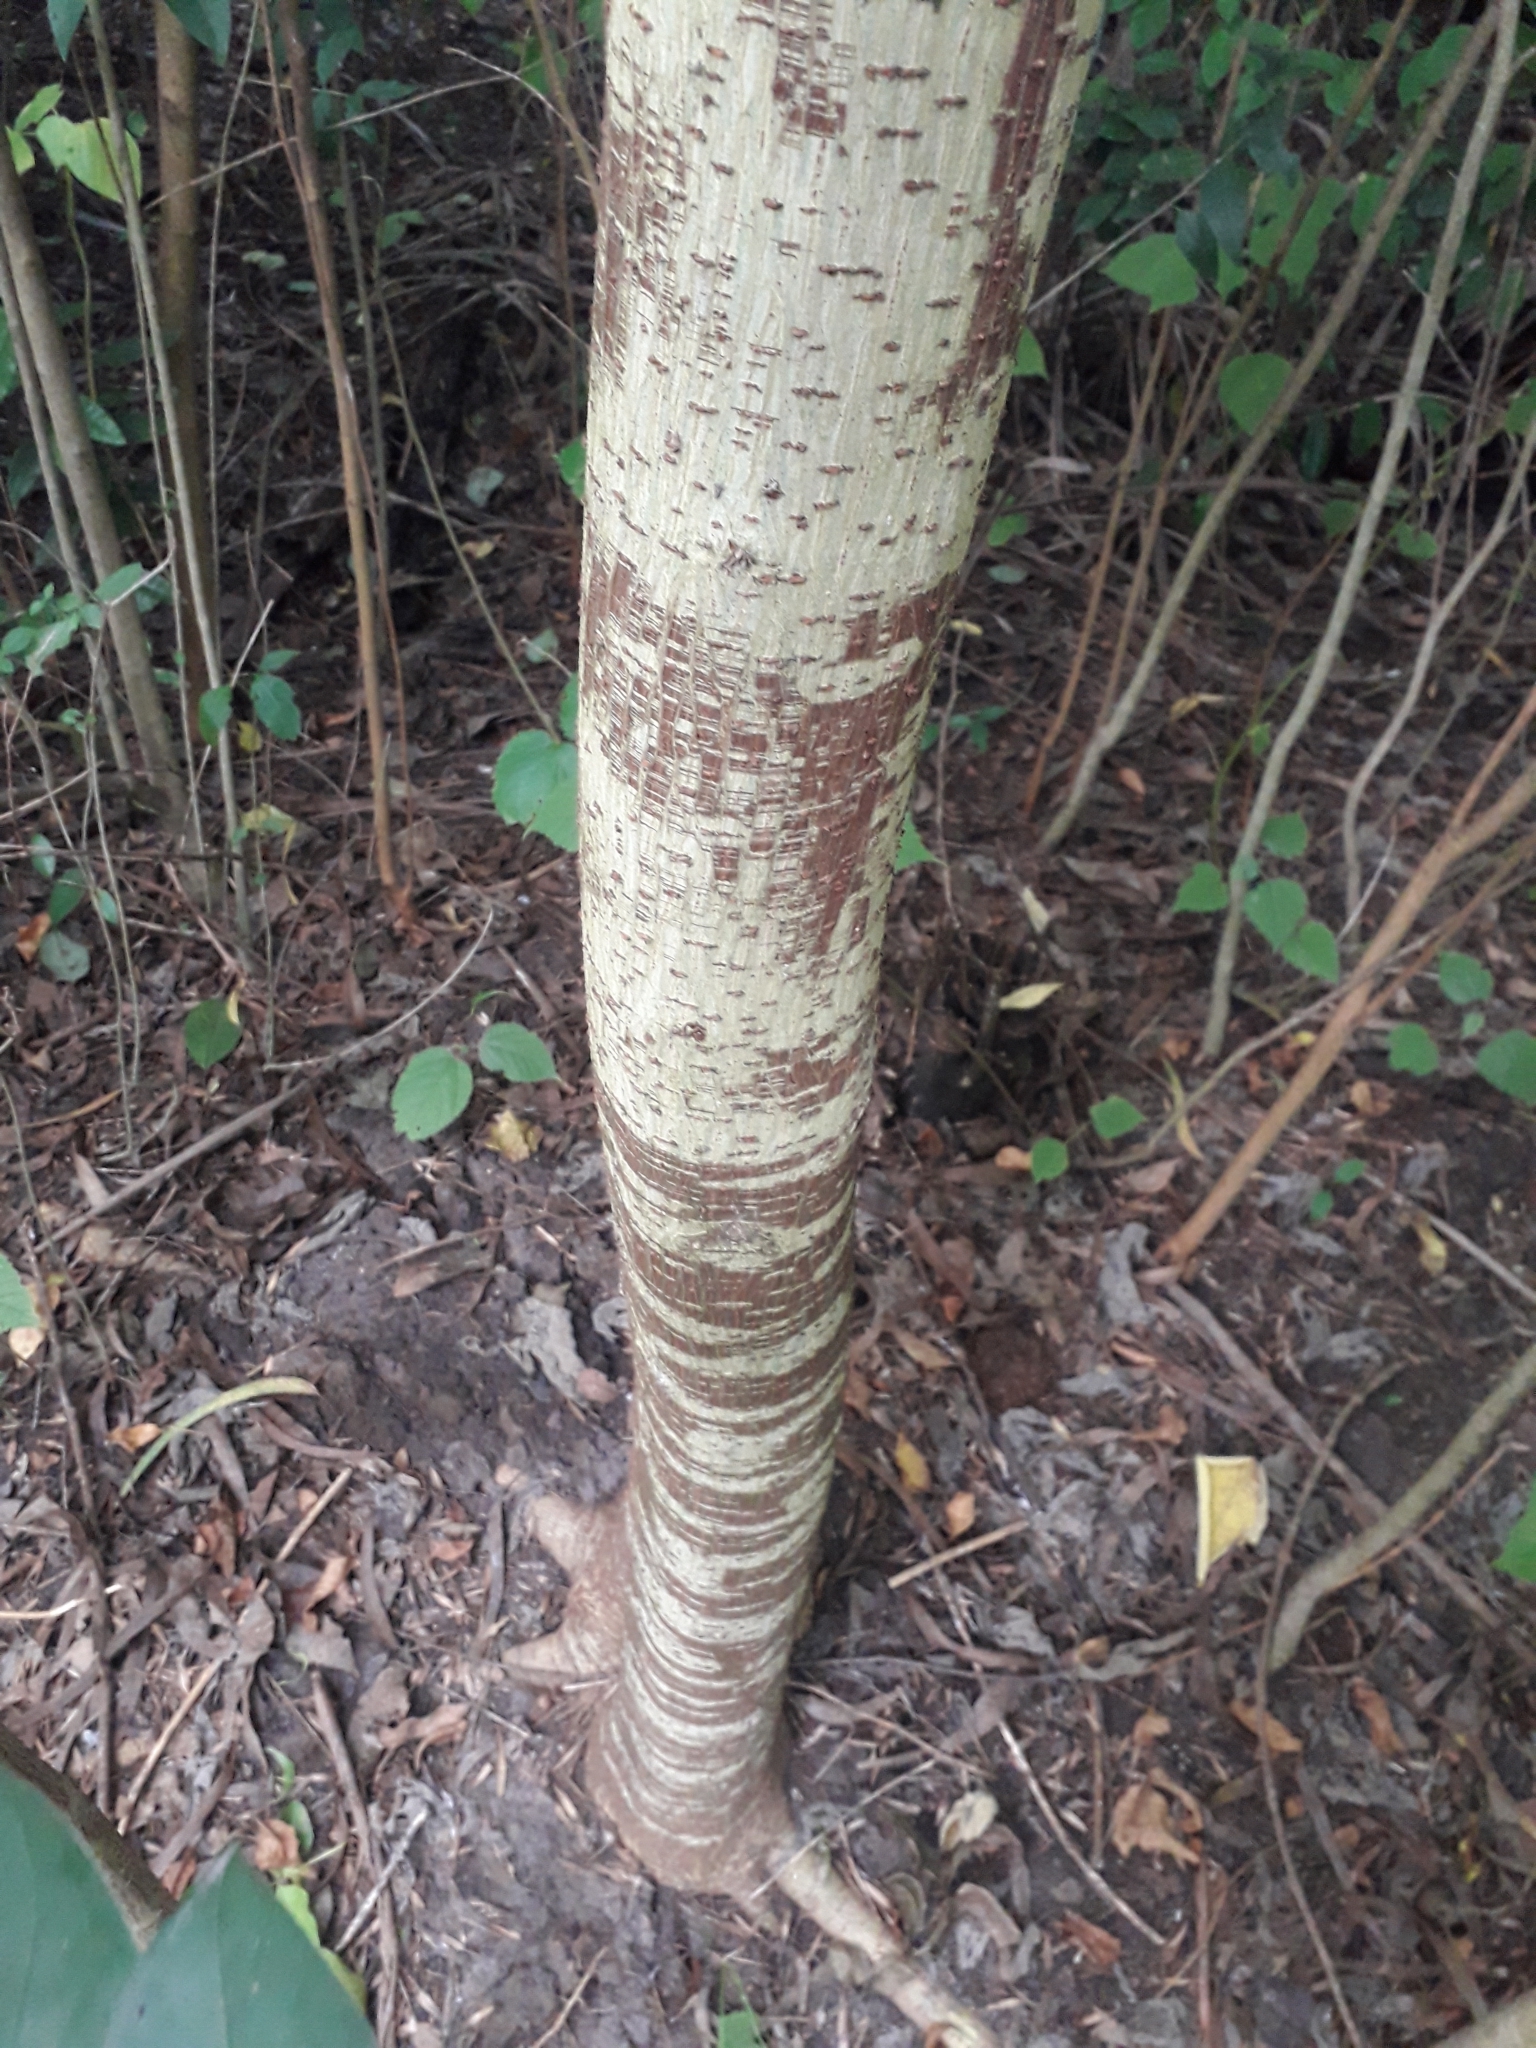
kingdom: Plantae
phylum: Tracheophyta
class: Magnoliopsida
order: Rosales
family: Moraceae
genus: Broussonetia
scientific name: Broussonetia papyrifera
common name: Paper mulberry
